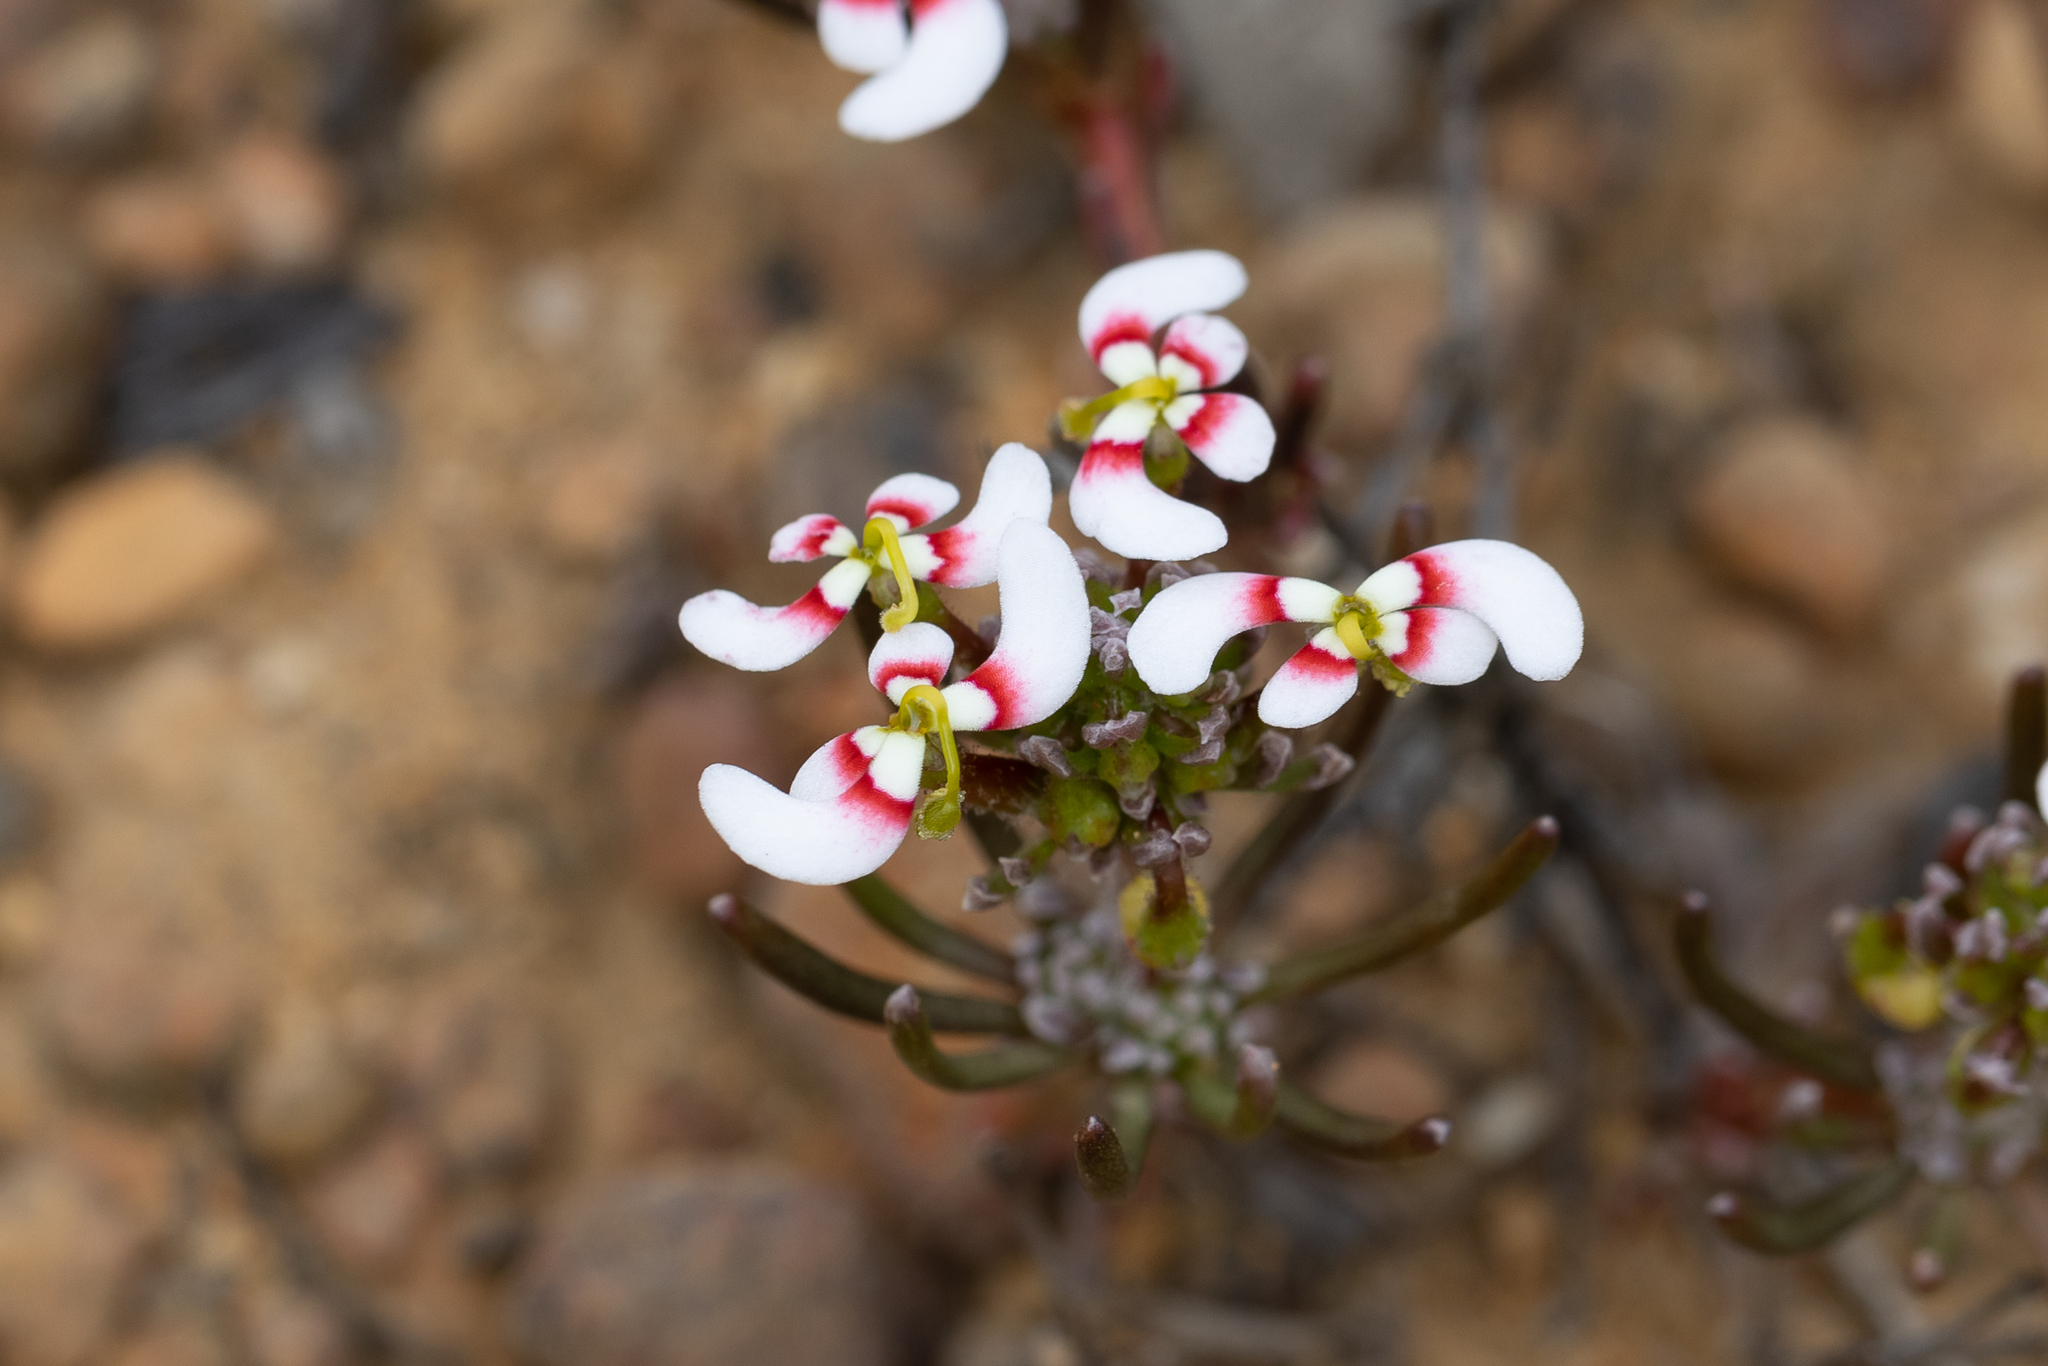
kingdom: Plantae
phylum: Tracheophyta
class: Magnoliopsida
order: Asterales
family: Stylidiaceae
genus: Stylidium
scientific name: Stylidium breviscapum
